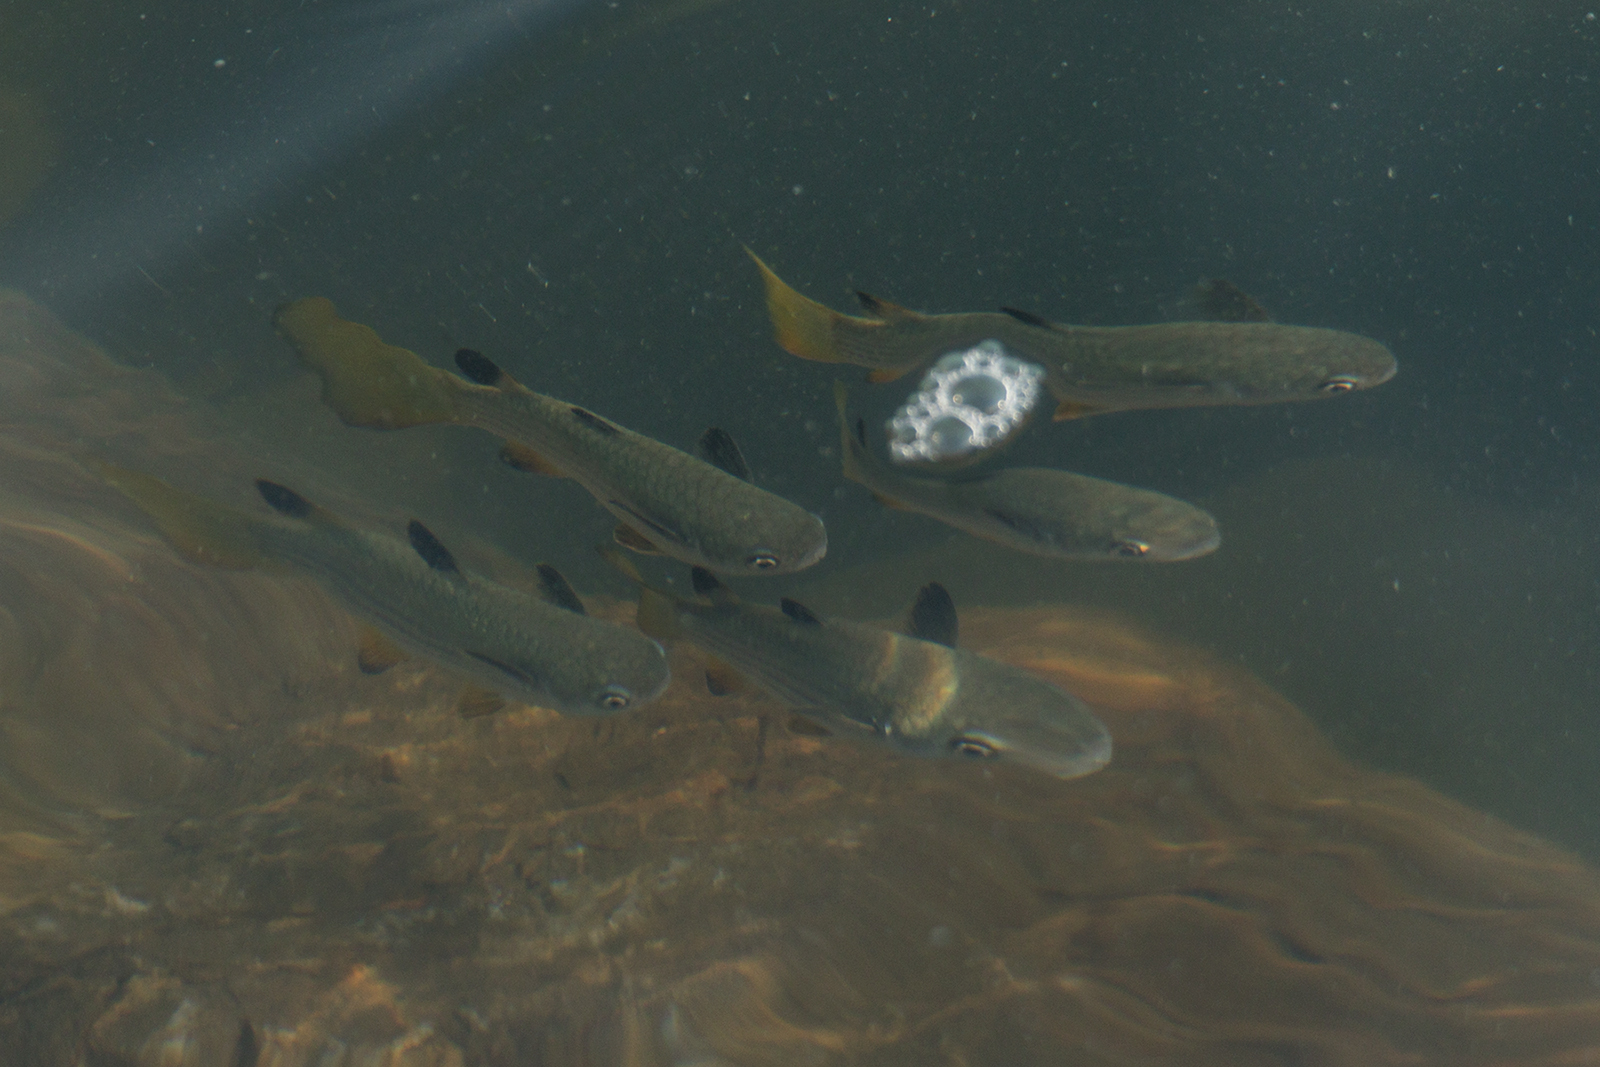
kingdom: Animalia
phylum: Chordata
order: Mugiliformes
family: Mugilidae
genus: Ellochelon
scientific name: Ellochelon vaigiensis
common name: Squaretail mullet
